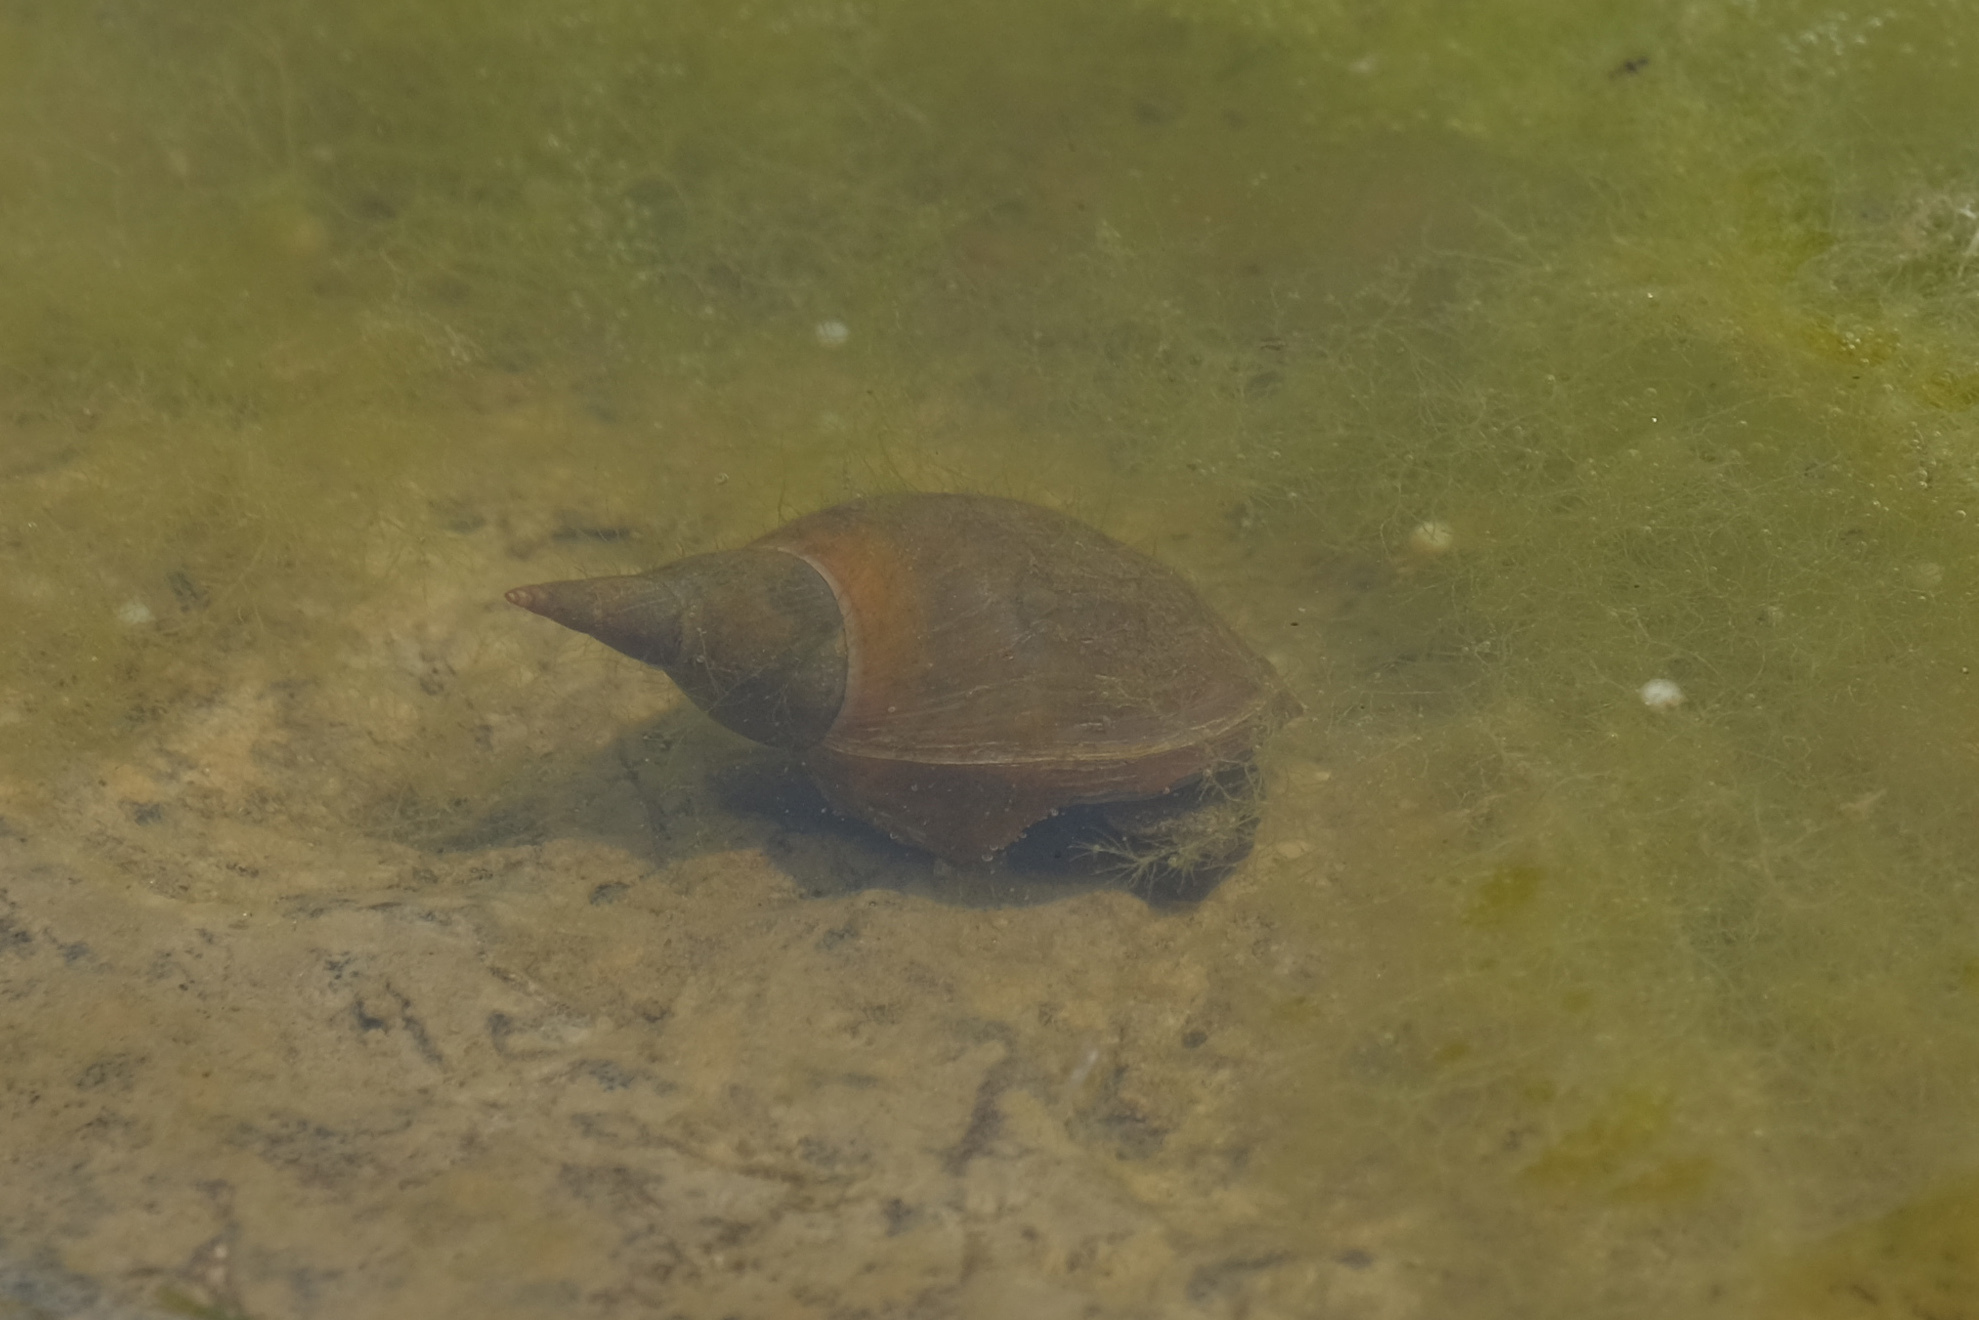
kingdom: Animalia
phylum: Mollusca
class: Gastropoda
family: Lymnaeidae
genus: Lymnaea
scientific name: Lymnaea stagnalis
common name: Great pond snail
